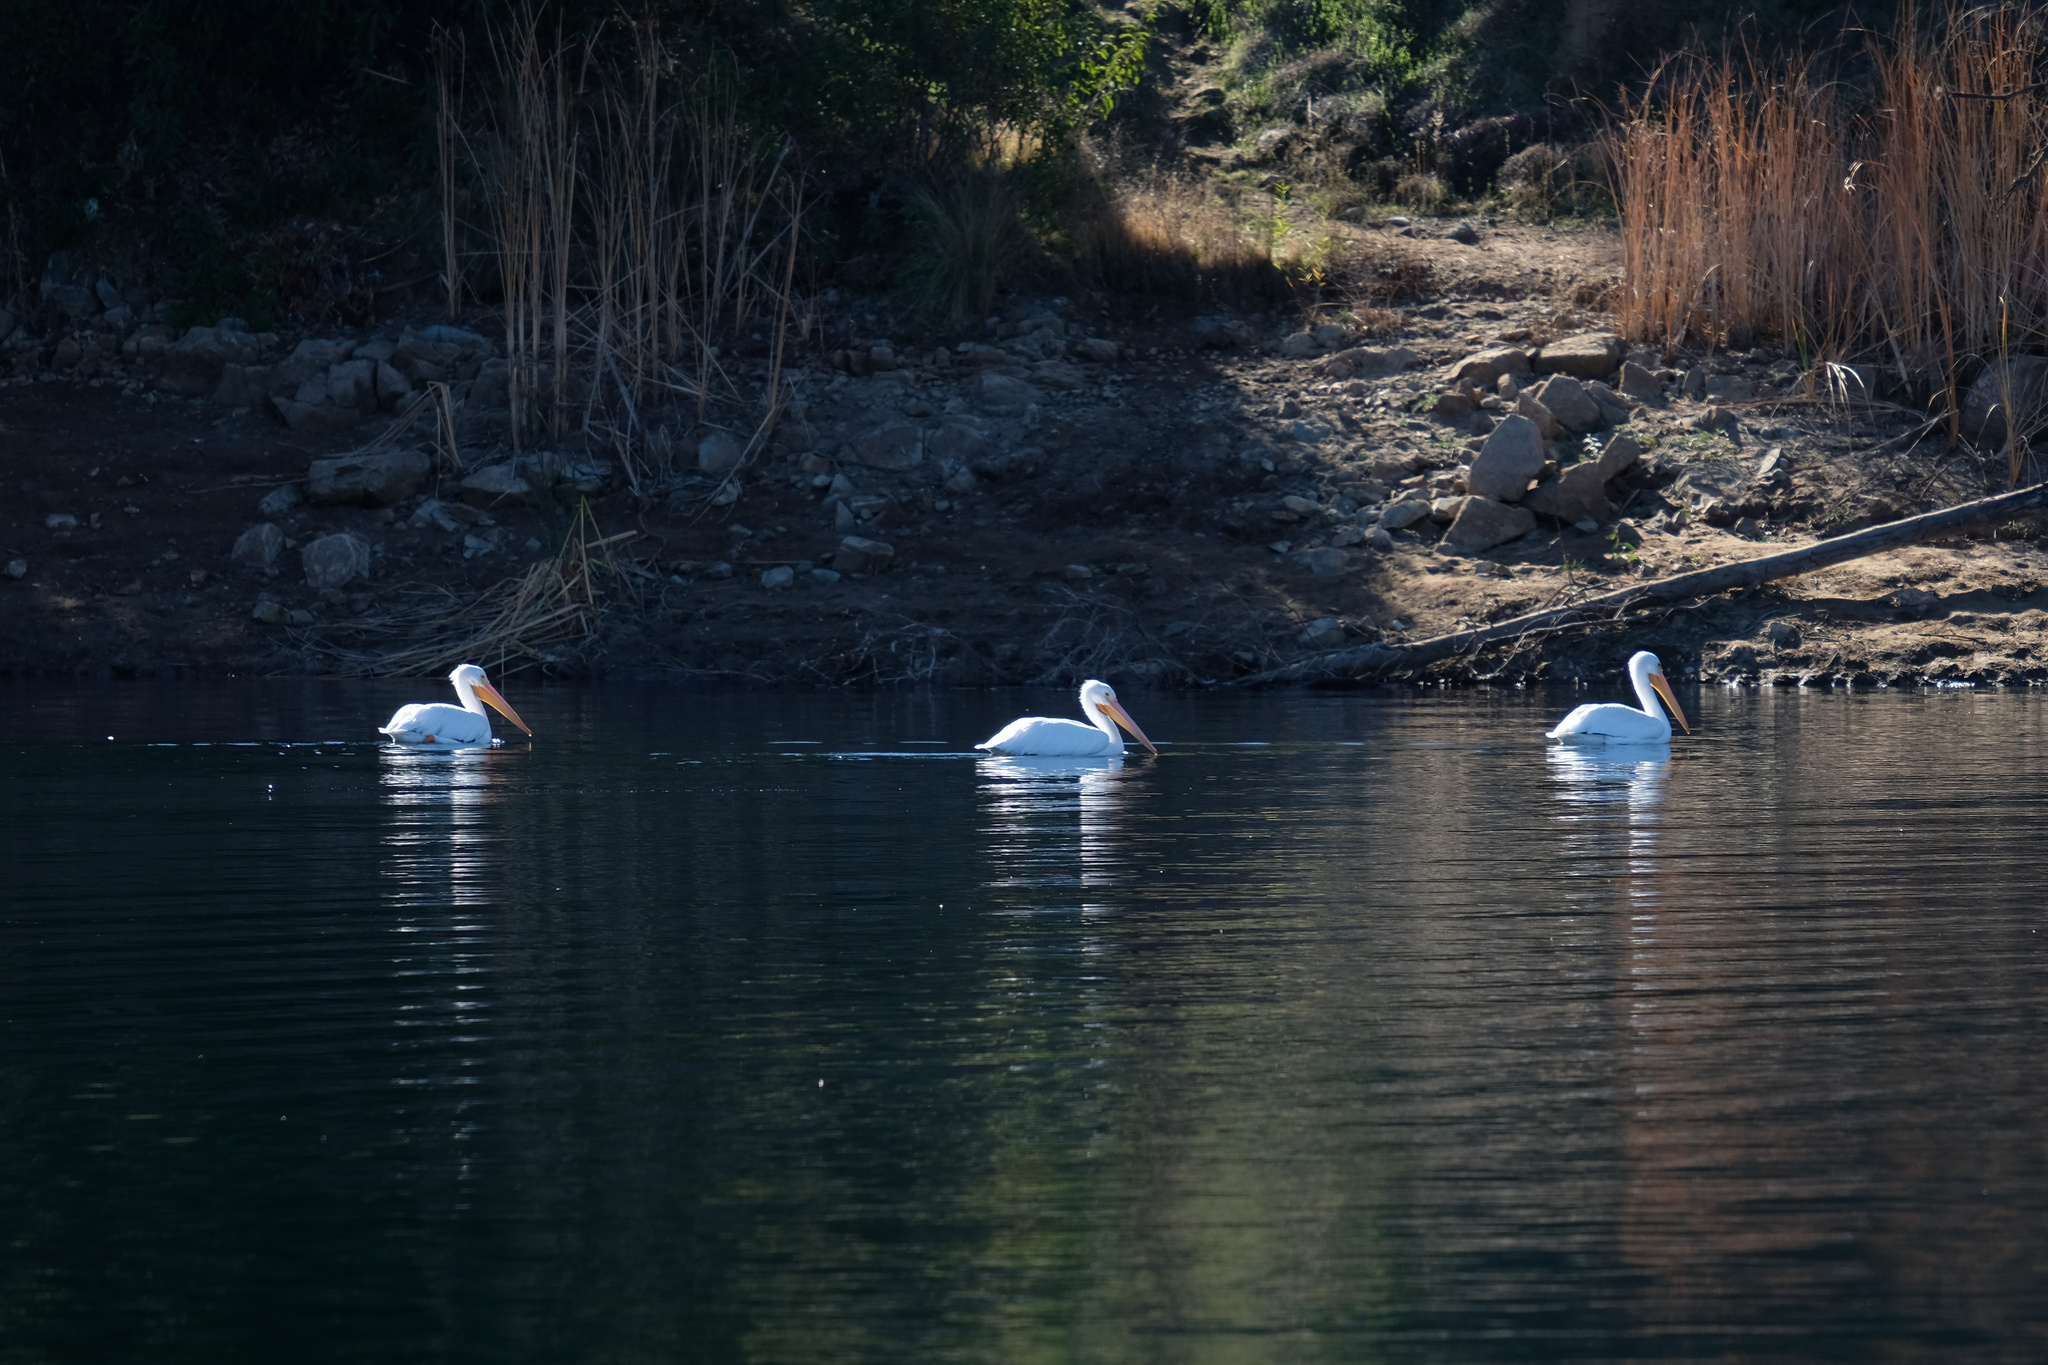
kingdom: Animalia
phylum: Chordata
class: Aves
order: Pelecaniformes
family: Pelecanidae
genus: Pelecanus
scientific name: Pelecanus erythrorhynchos
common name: American white pelican
